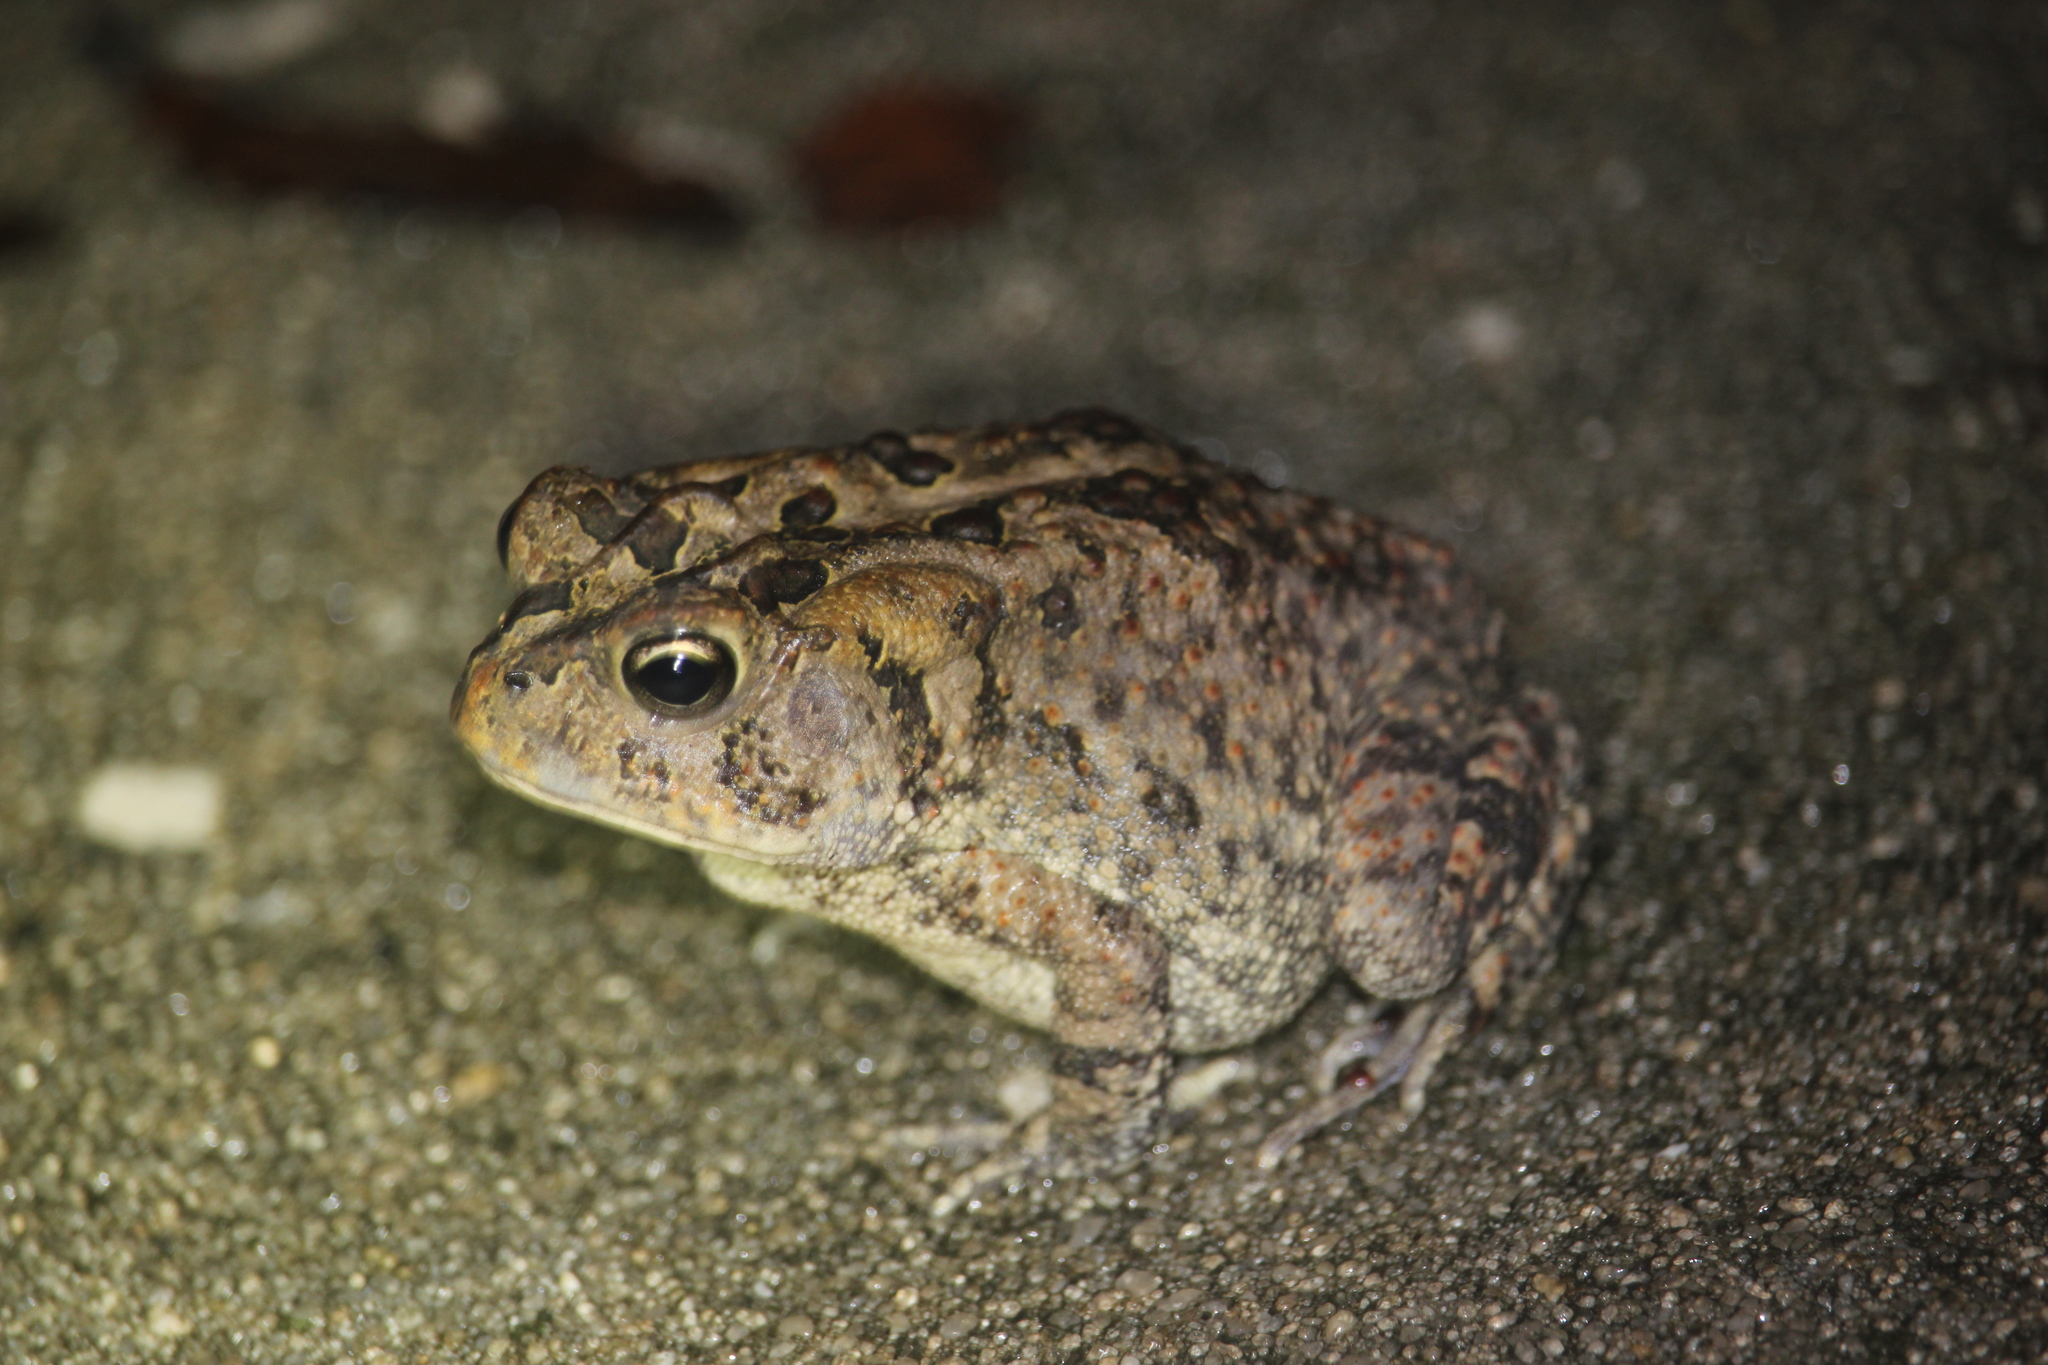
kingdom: Animalia
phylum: Chordata
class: Amphibia
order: Anura
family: Bufonidae
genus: Anaxyrus
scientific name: Anaxyrus terrestris
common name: Southern toad
